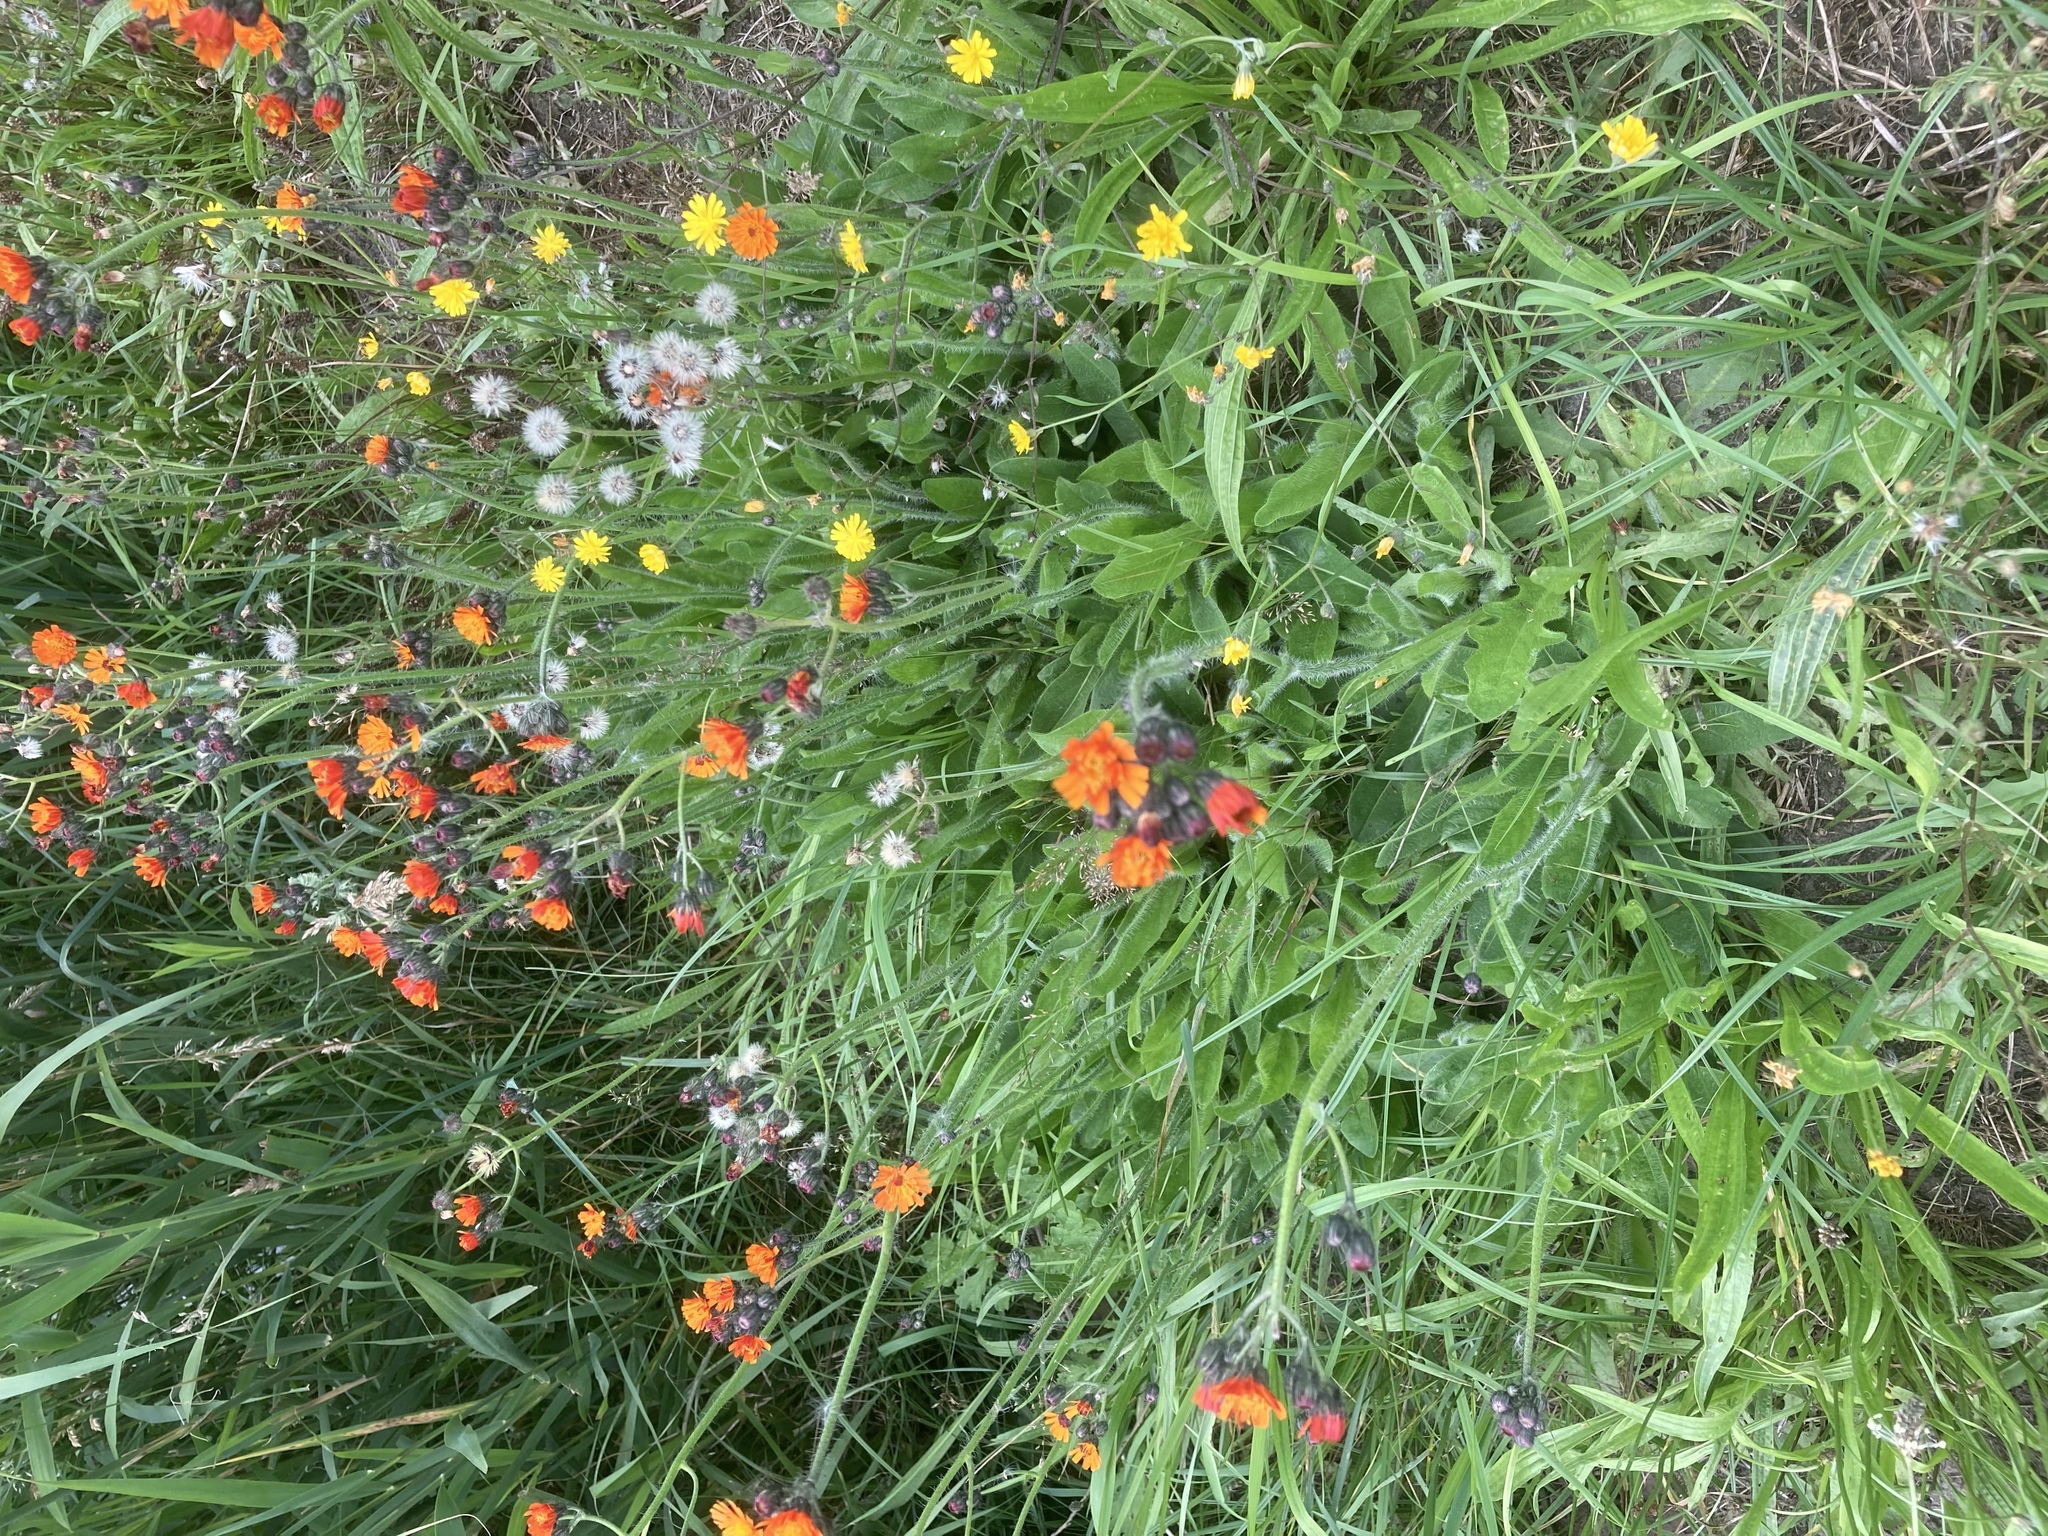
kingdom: Plantae
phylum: Tracheophyta
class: Magnoliopsida
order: Asterales
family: Asteraceae
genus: Pilosella
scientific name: Pilosella aurantiaca
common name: Fox-and-cubs
